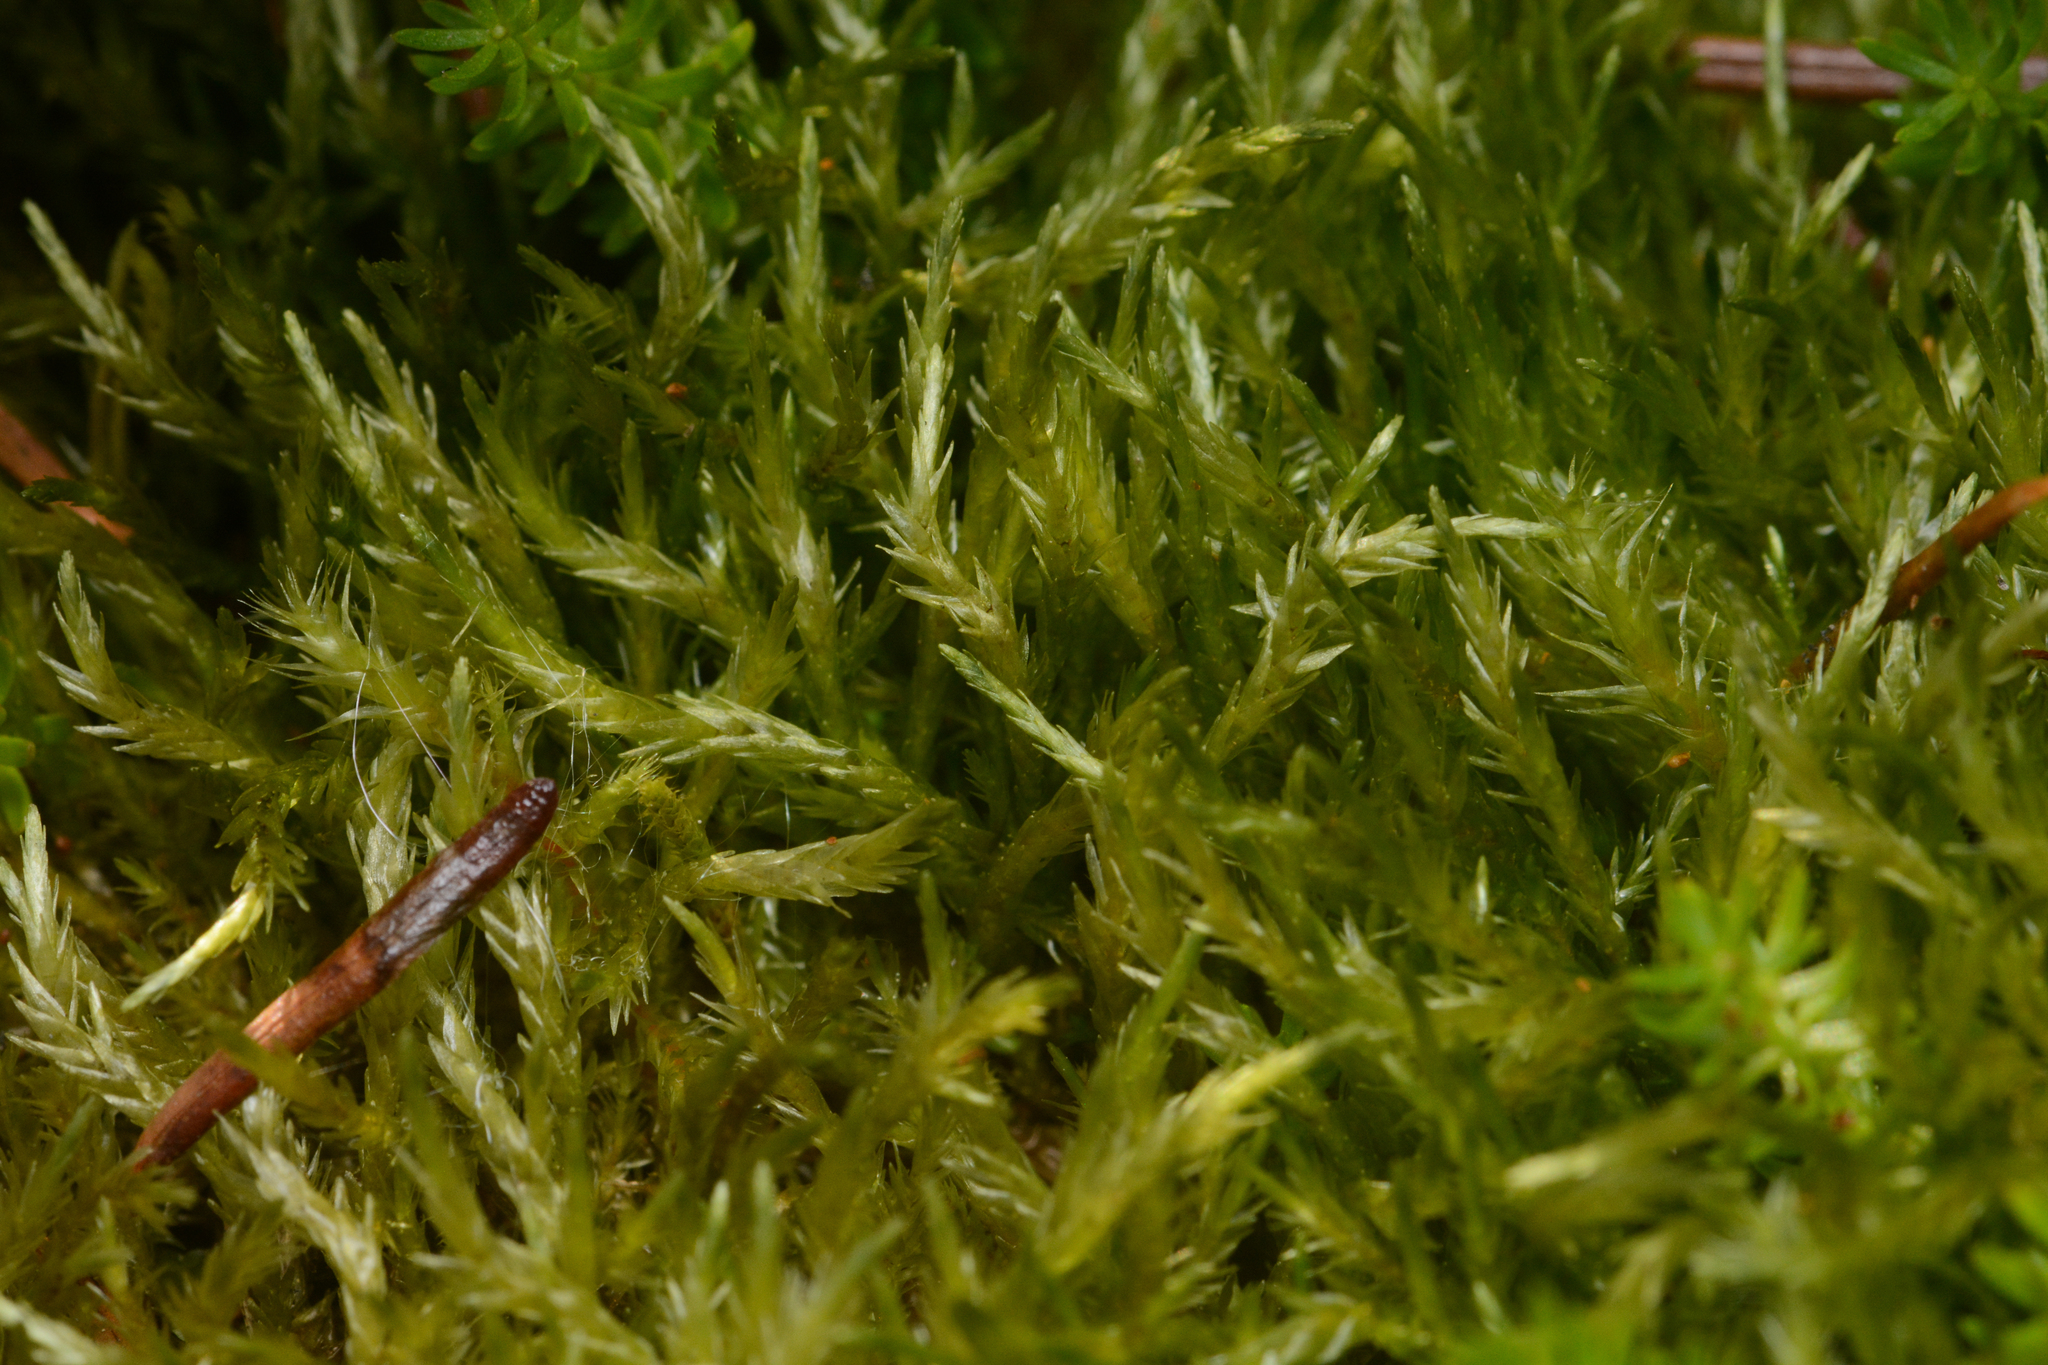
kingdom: Plantae
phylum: Bryophyta
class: Bryopsida
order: Hypnales
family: Calliergonaceae
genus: Straminergon
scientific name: Straminergon stramineum
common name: Straw moss
